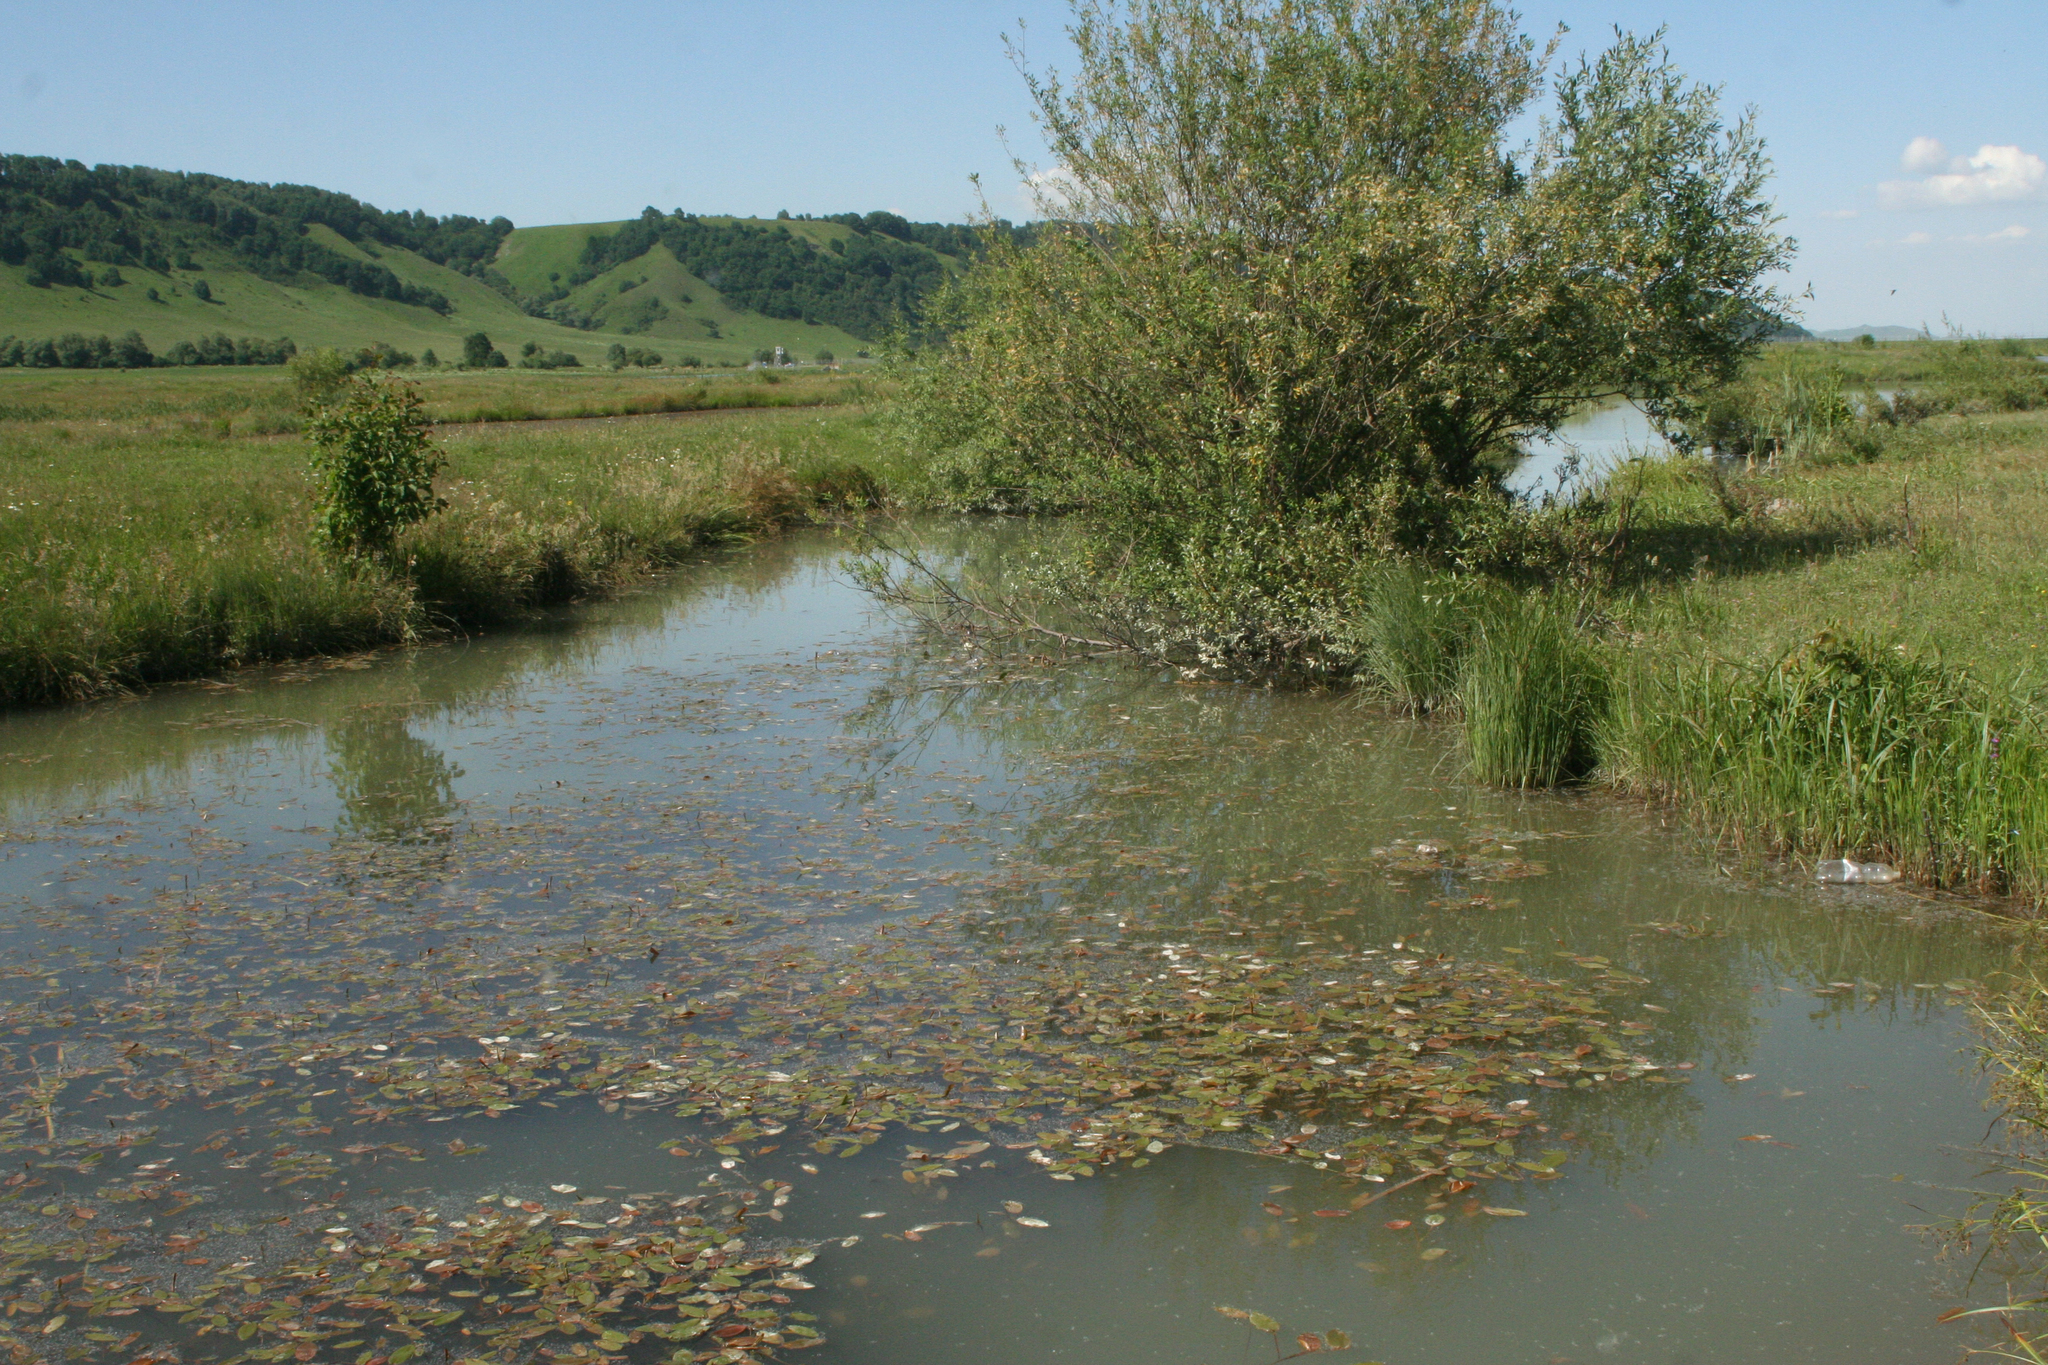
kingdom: Plantae
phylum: Tracheophyta
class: Liliopsida
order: Alismatales
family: Potamogetonaceae
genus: Potamogeton
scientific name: Potamogeton natans
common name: Broad-leaved pondweed
